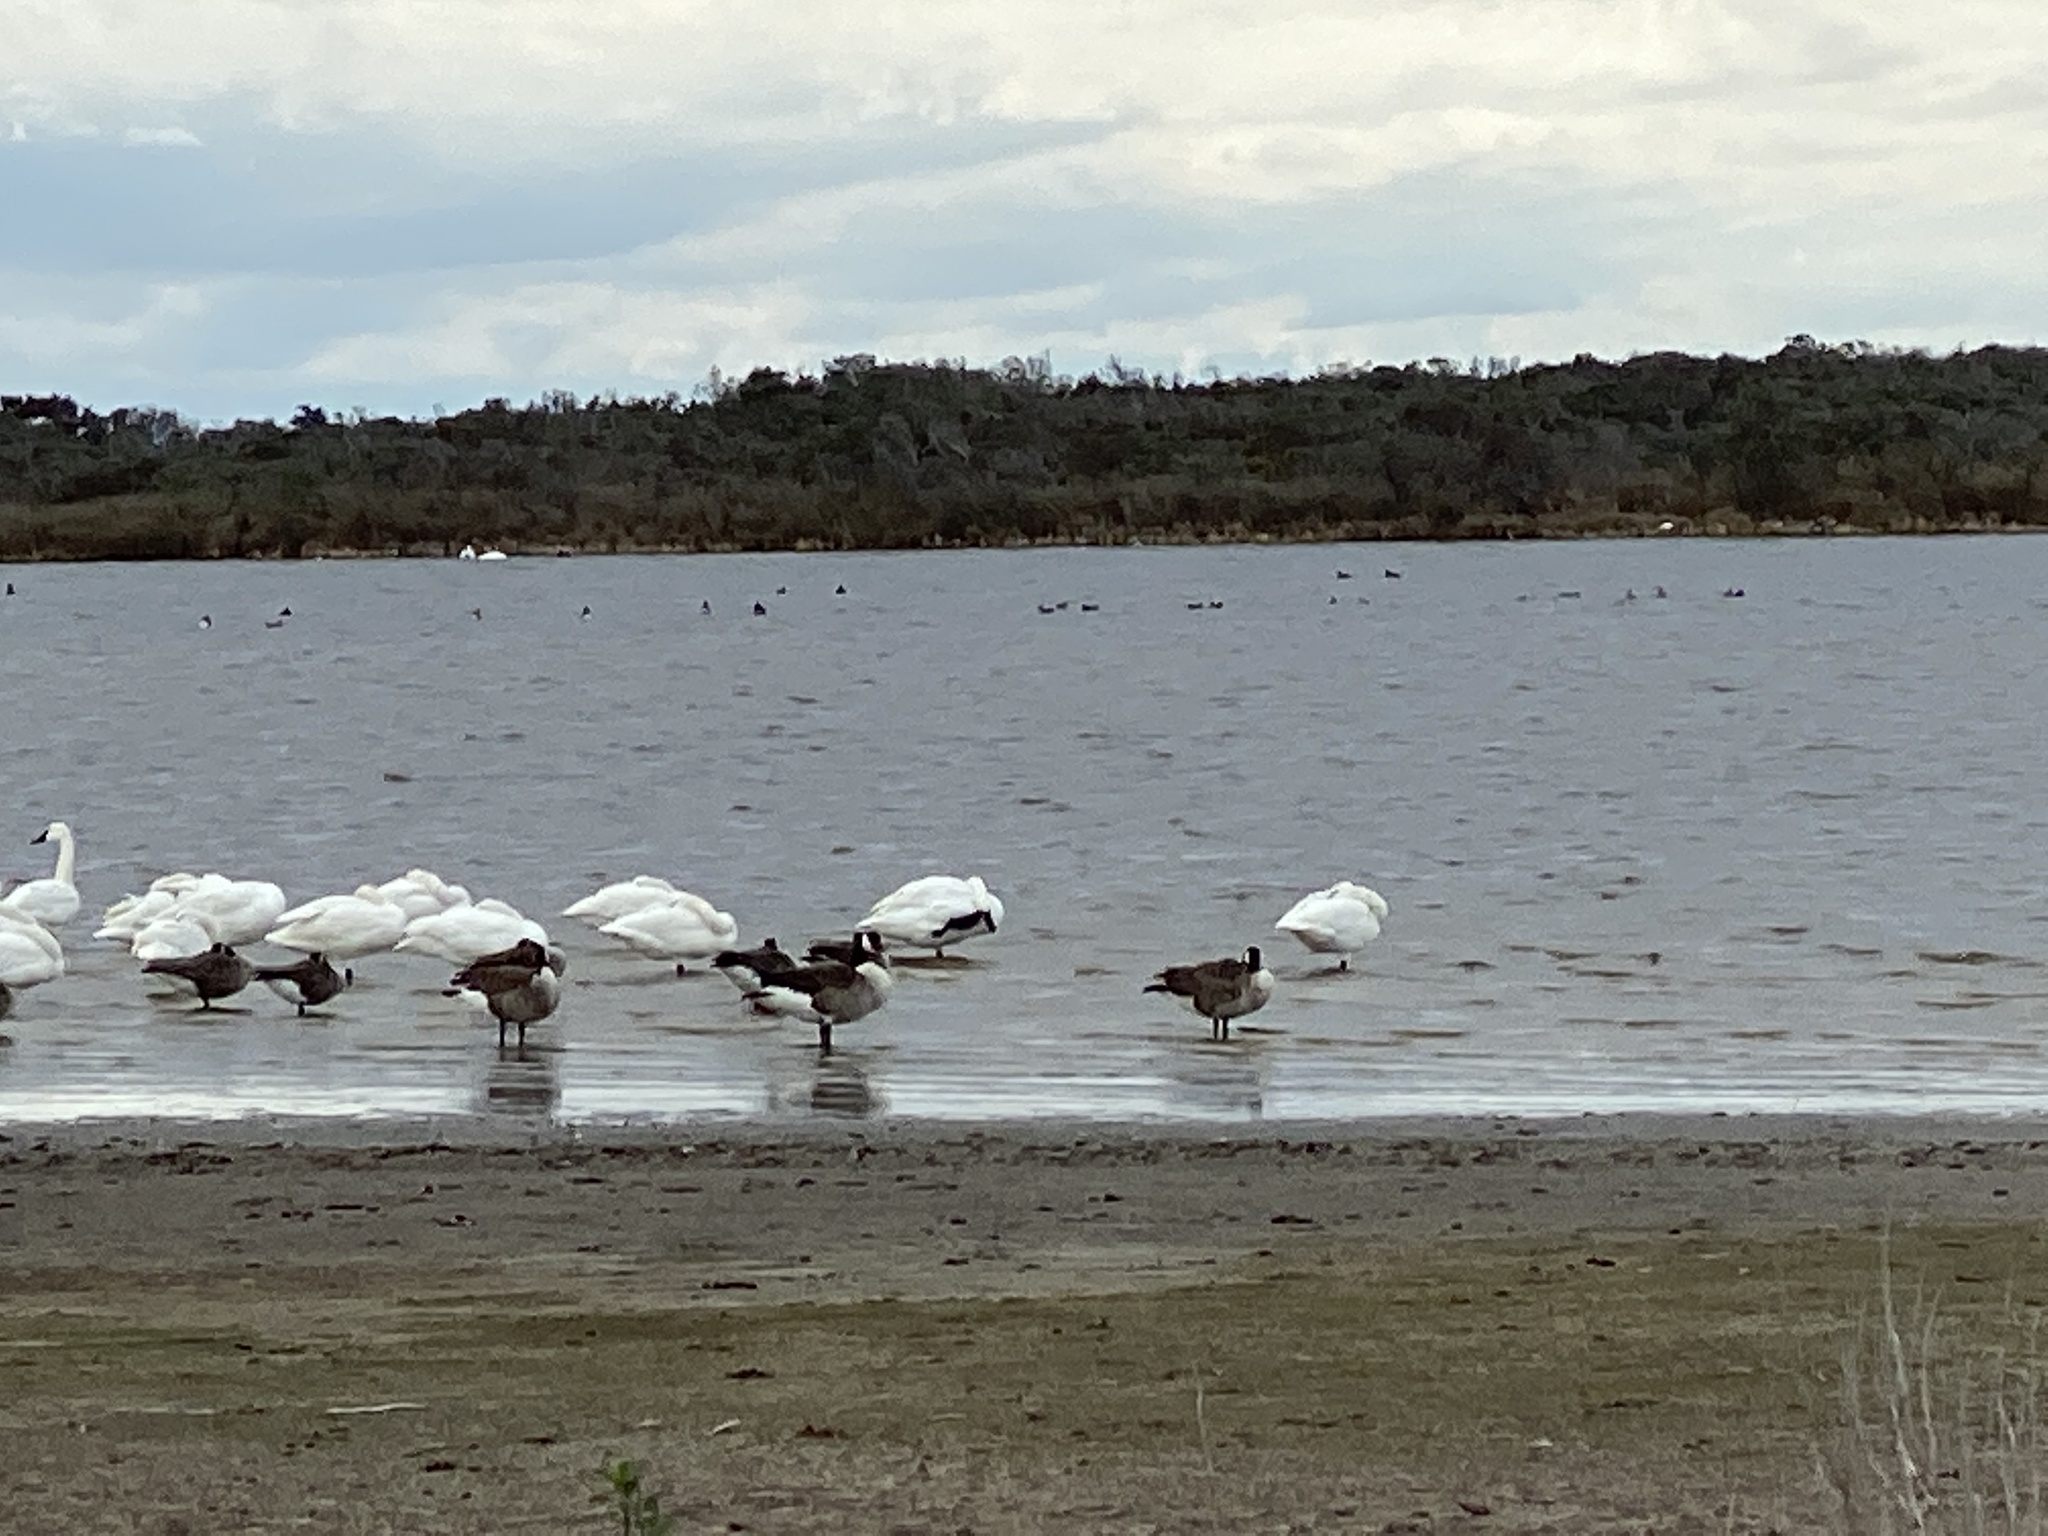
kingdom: Animalia
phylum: Chordata
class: Aves
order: Anseriformes
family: Anatidae
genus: Branta
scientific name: Branta canadensis
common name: Canada goose
